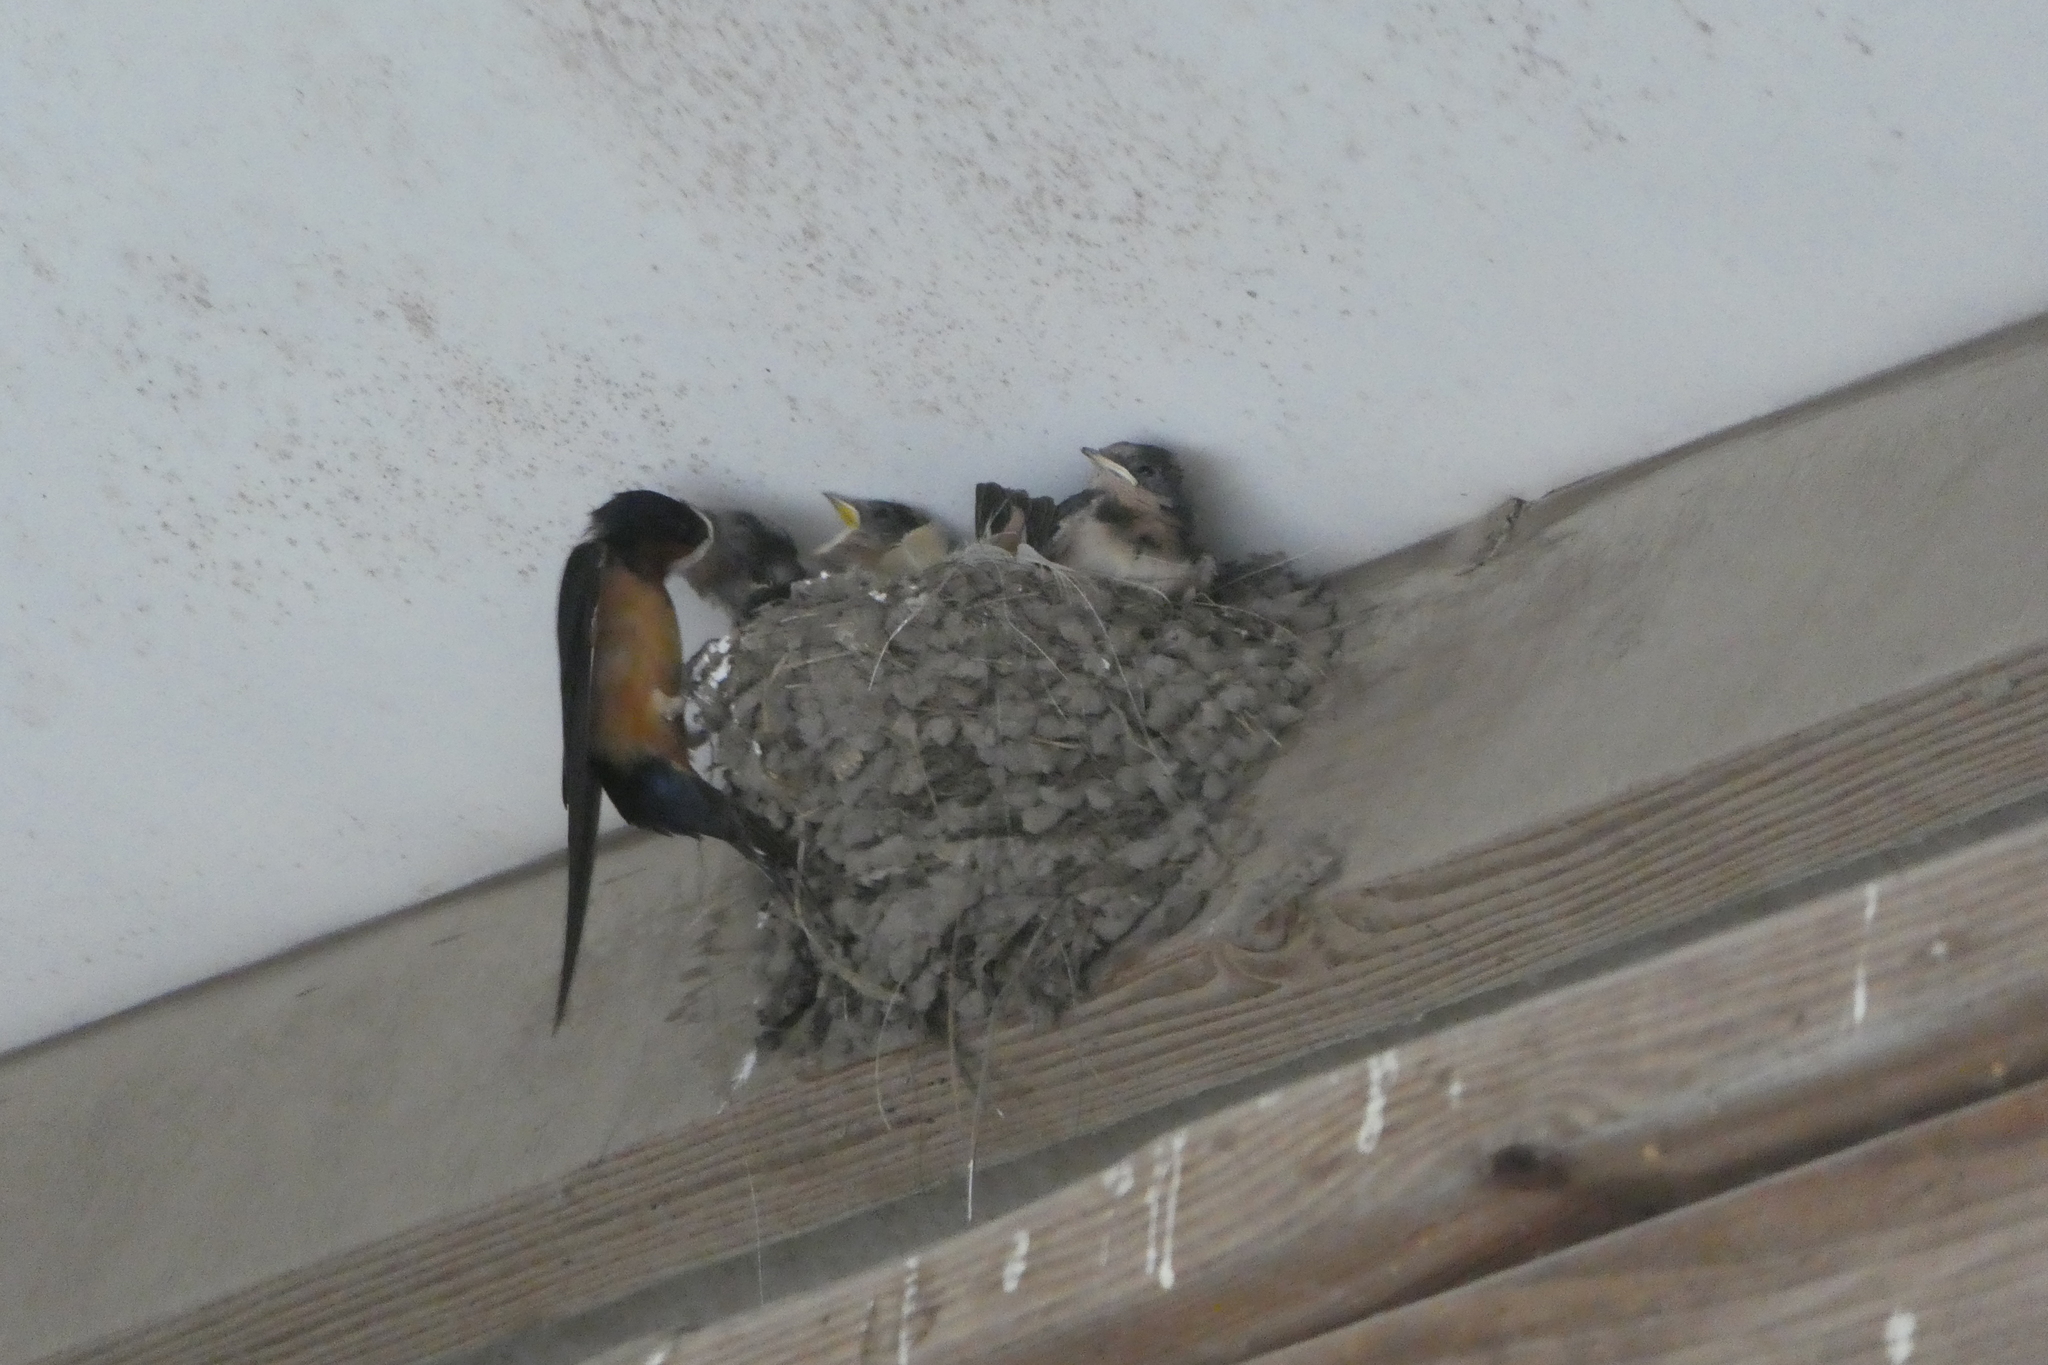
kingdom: Animalia
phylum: Chordata
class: Aves
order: Passeriformes
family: Hirundinidae
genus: Hirundo
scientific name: Hirundo rustica
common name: Barn swallow
